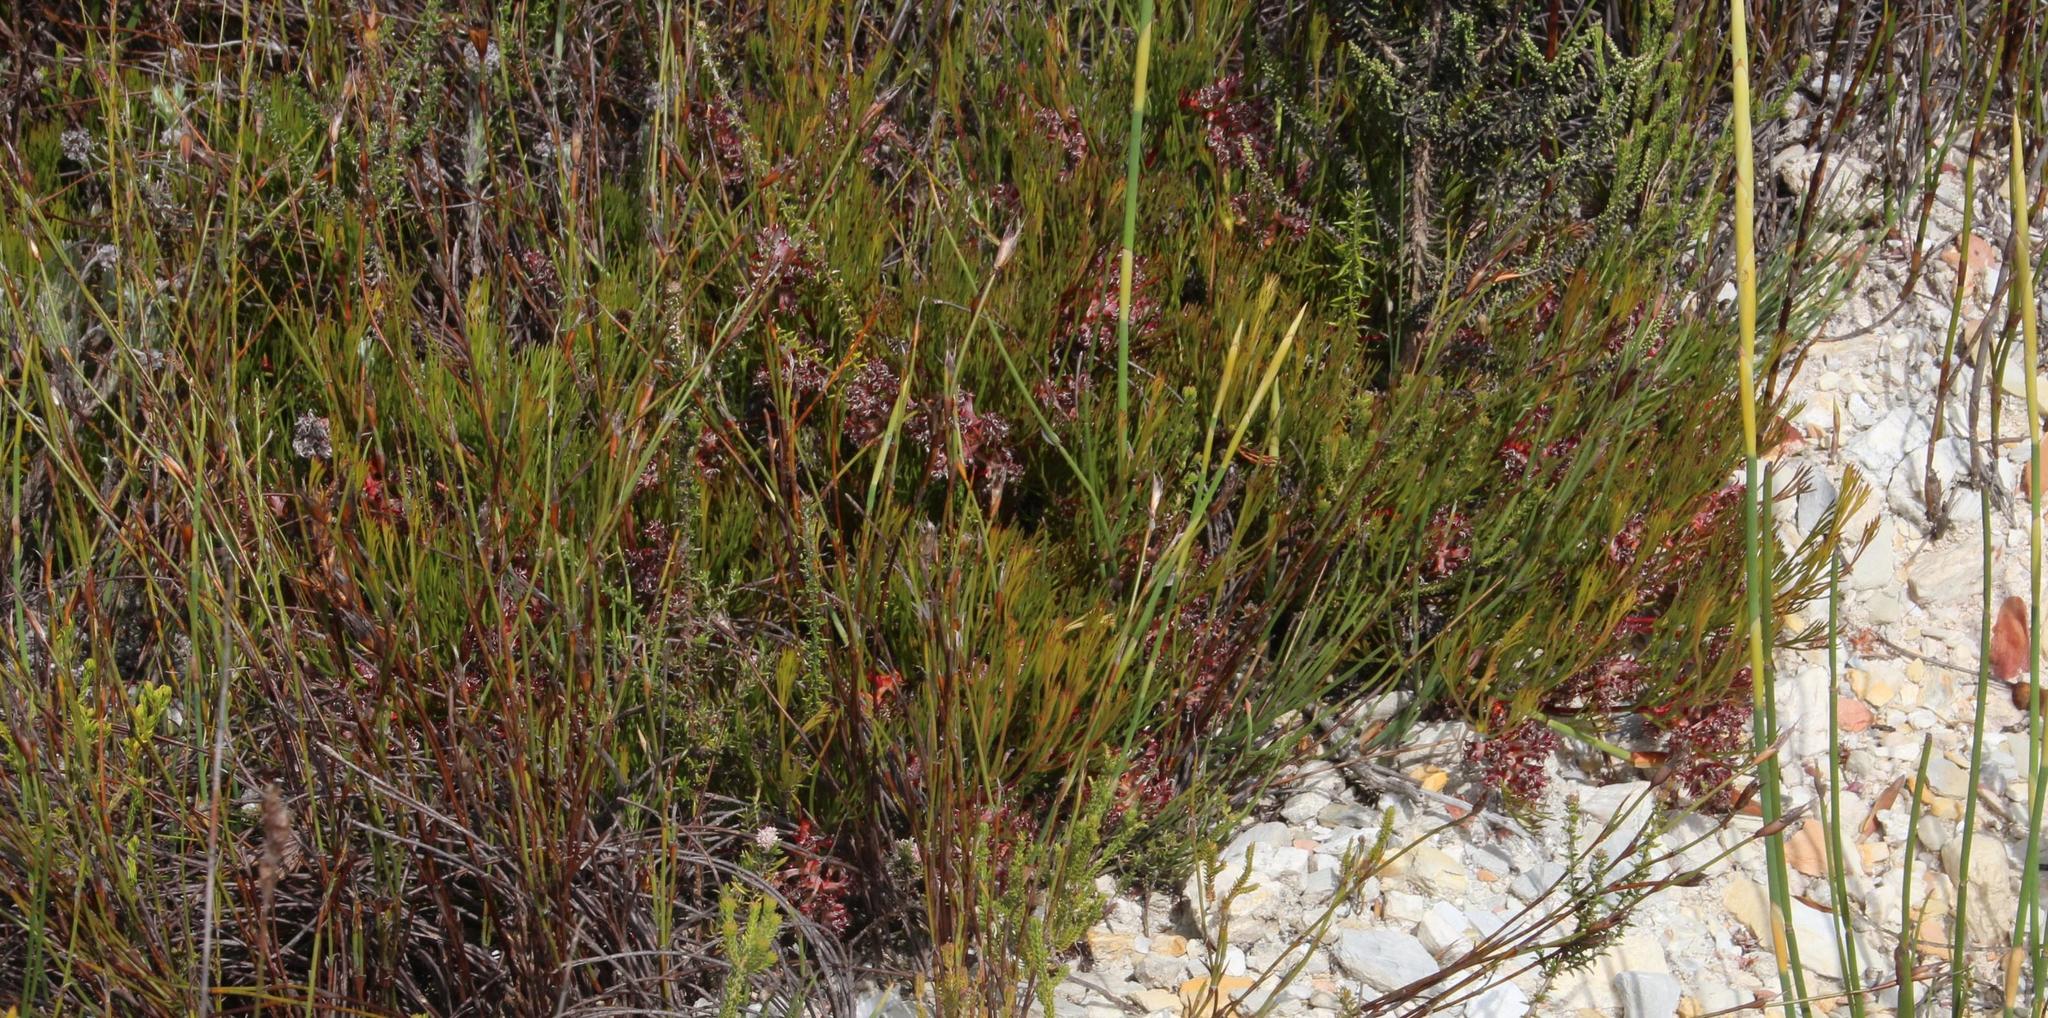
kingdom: Plantae
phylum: Tracheophyta
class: Magnoliopsida
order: Proteales
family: Proteaceae
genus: Serruria
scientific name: Serruria rubricaulis
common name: Red-stem spiderhead
